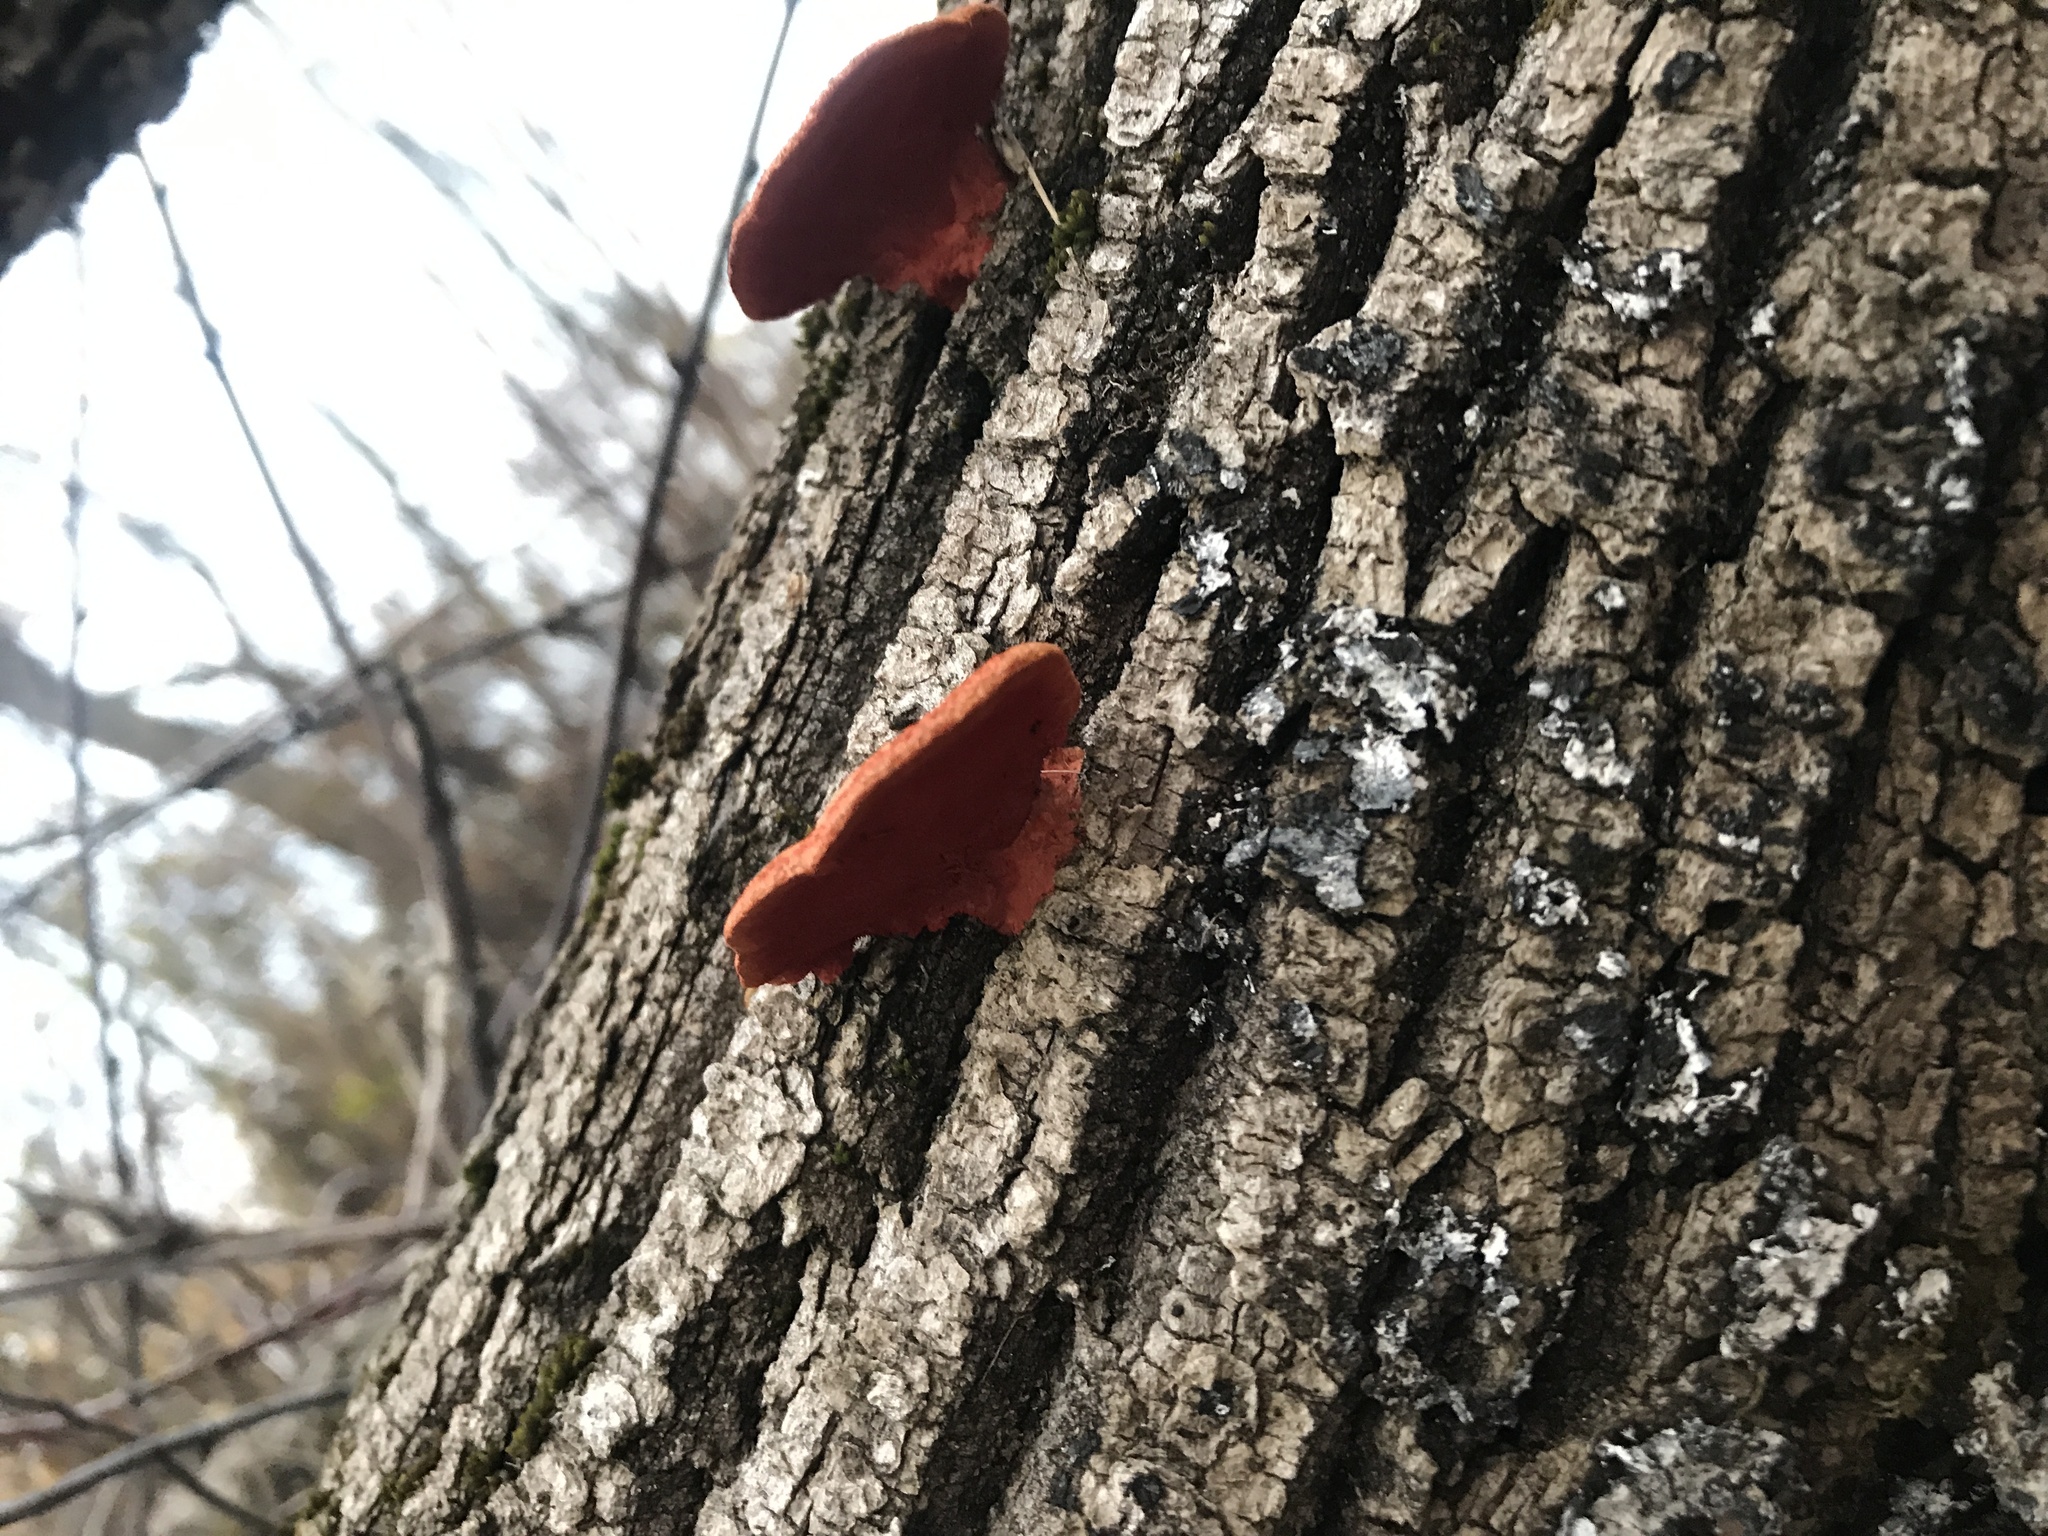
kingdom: Fungi
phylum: Basidiomycota
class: Agaricomycetes
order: Polyporales
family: Polyporaceae
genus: Trametes
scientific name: Trametes cinnabarina
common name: Northern cinnabar polypore
